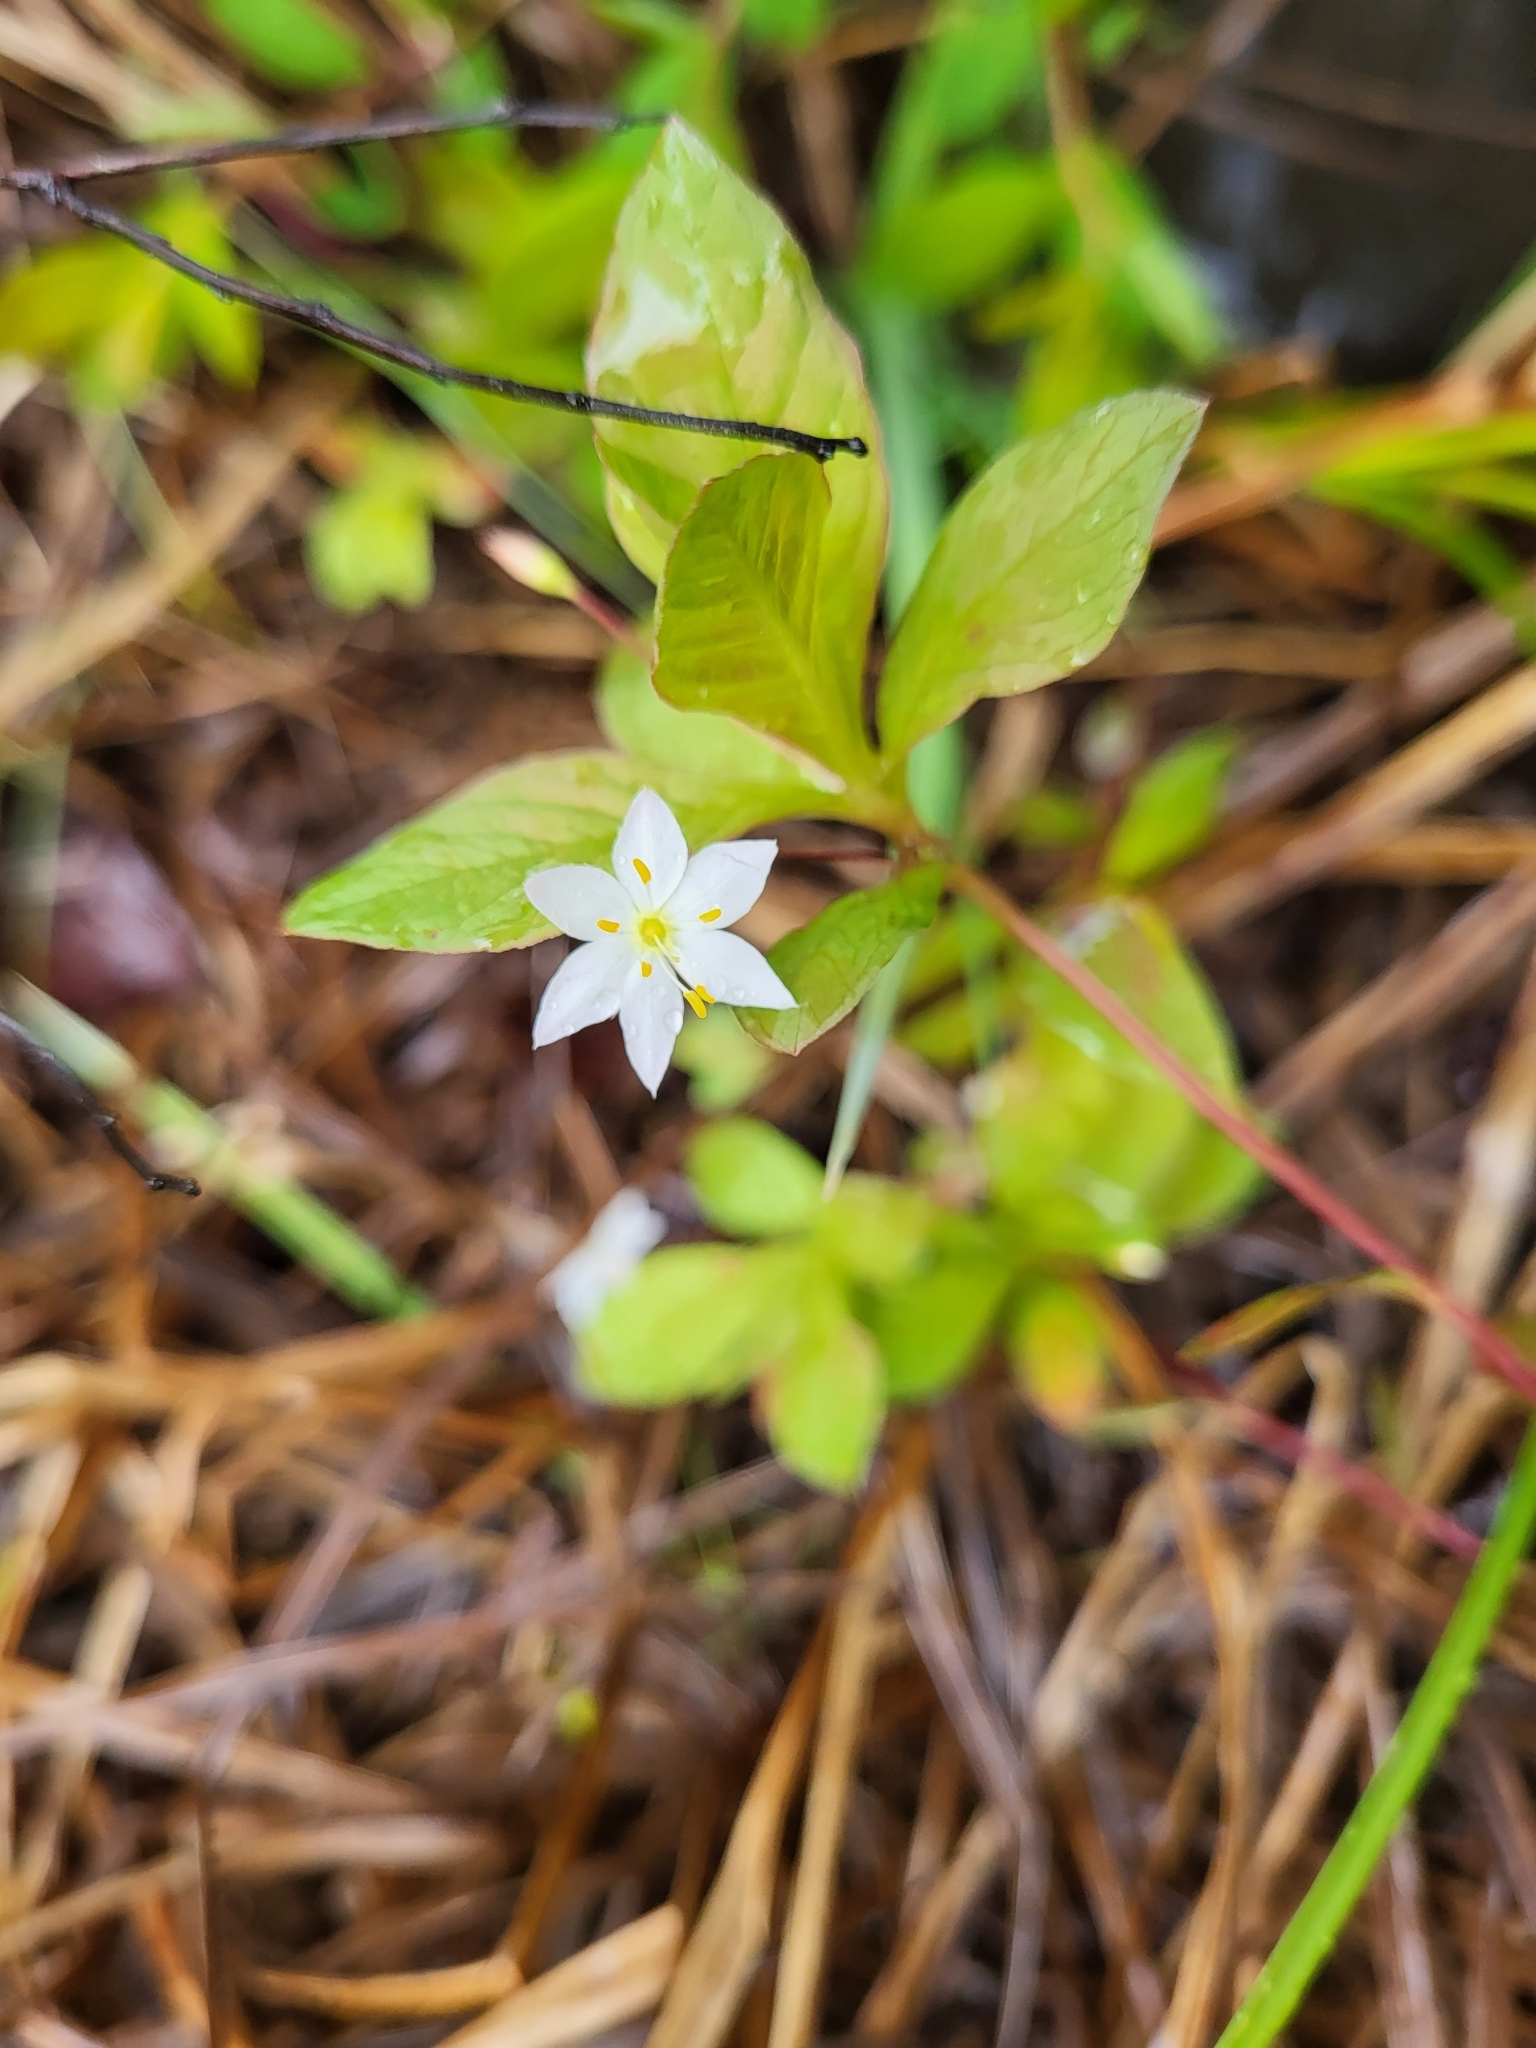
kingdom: Plantae
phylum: Tracheophyta
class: Magnoliopsida
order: Ericales
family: Primulaceae
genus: Lysimachia
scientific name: Lysimachia europaea
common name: Arctic starflower
